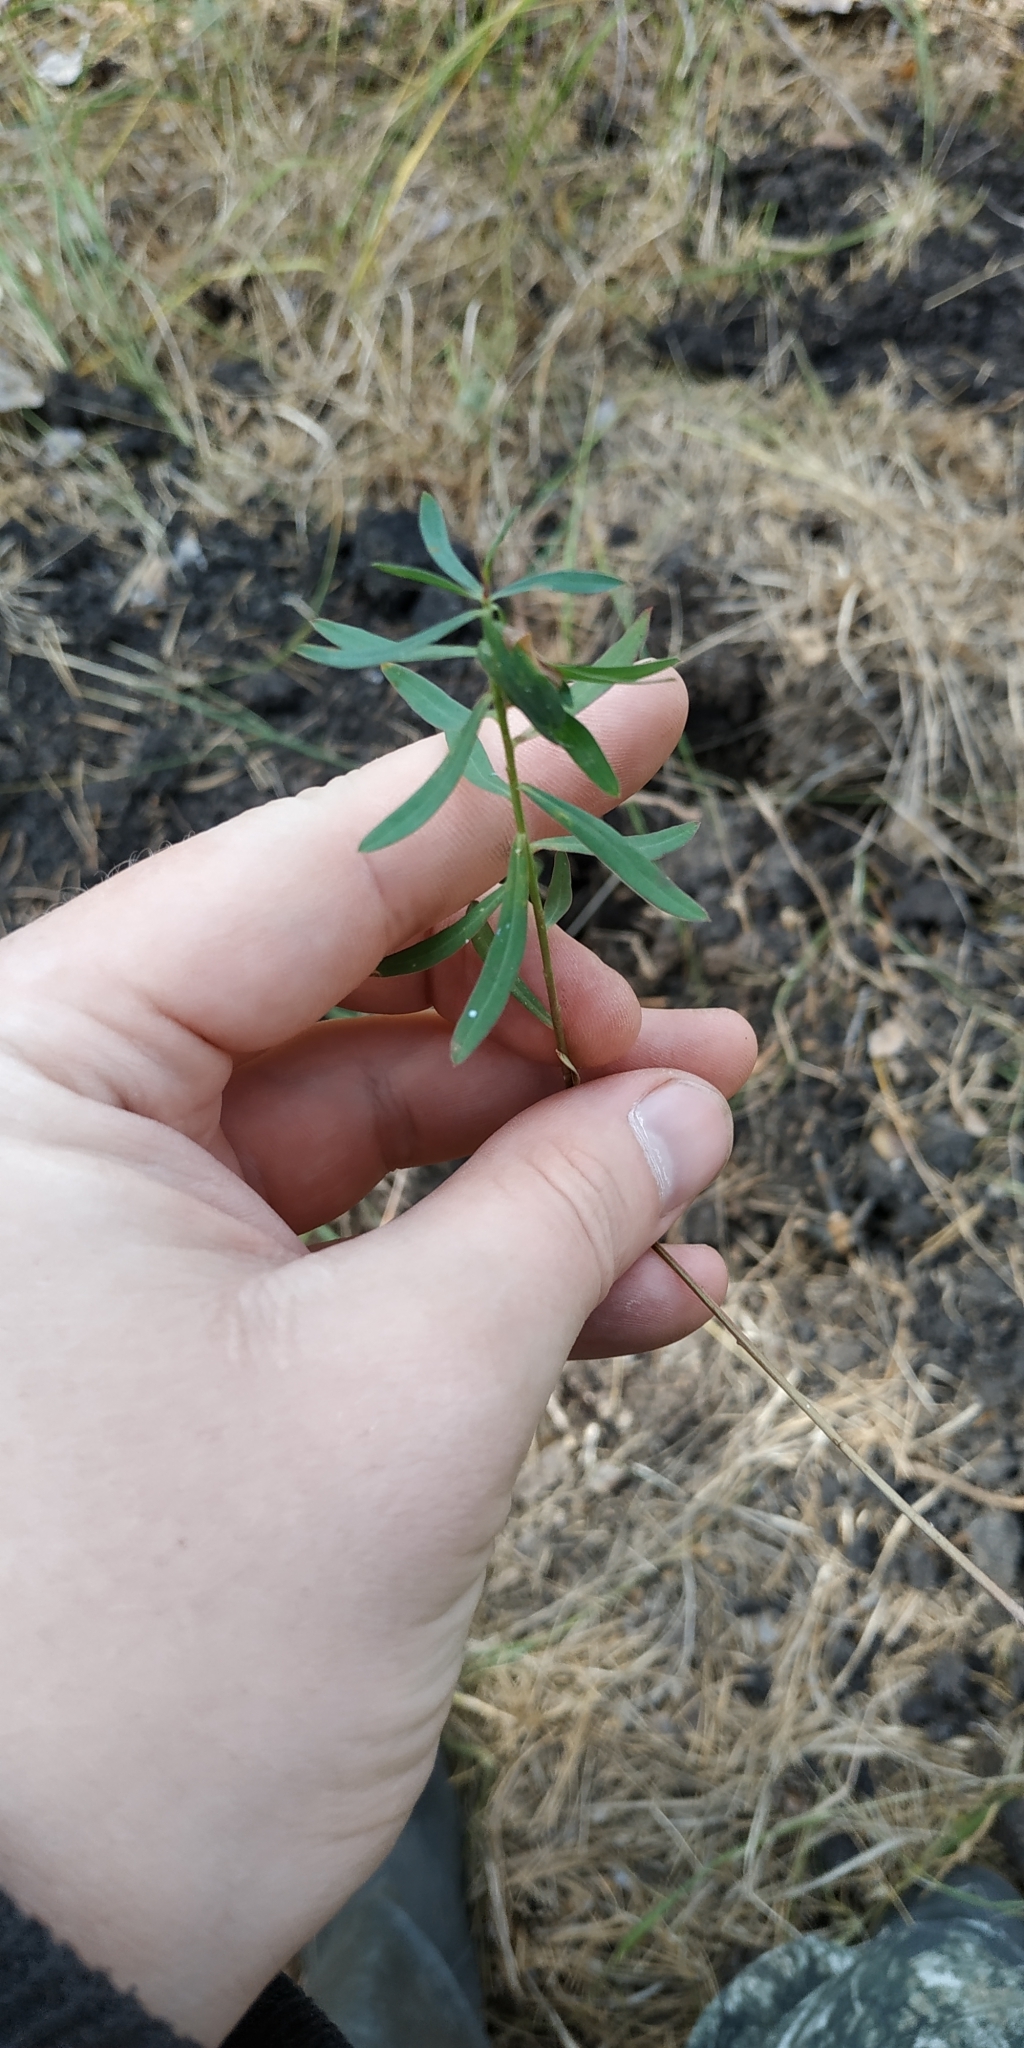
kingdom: Plantae
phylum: Tracheophyta
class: Magnoliopsida
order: Lamiales
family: Plantaginaceae
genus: Linaria
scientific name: Linaria vulgaris
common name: Butter and eggs
